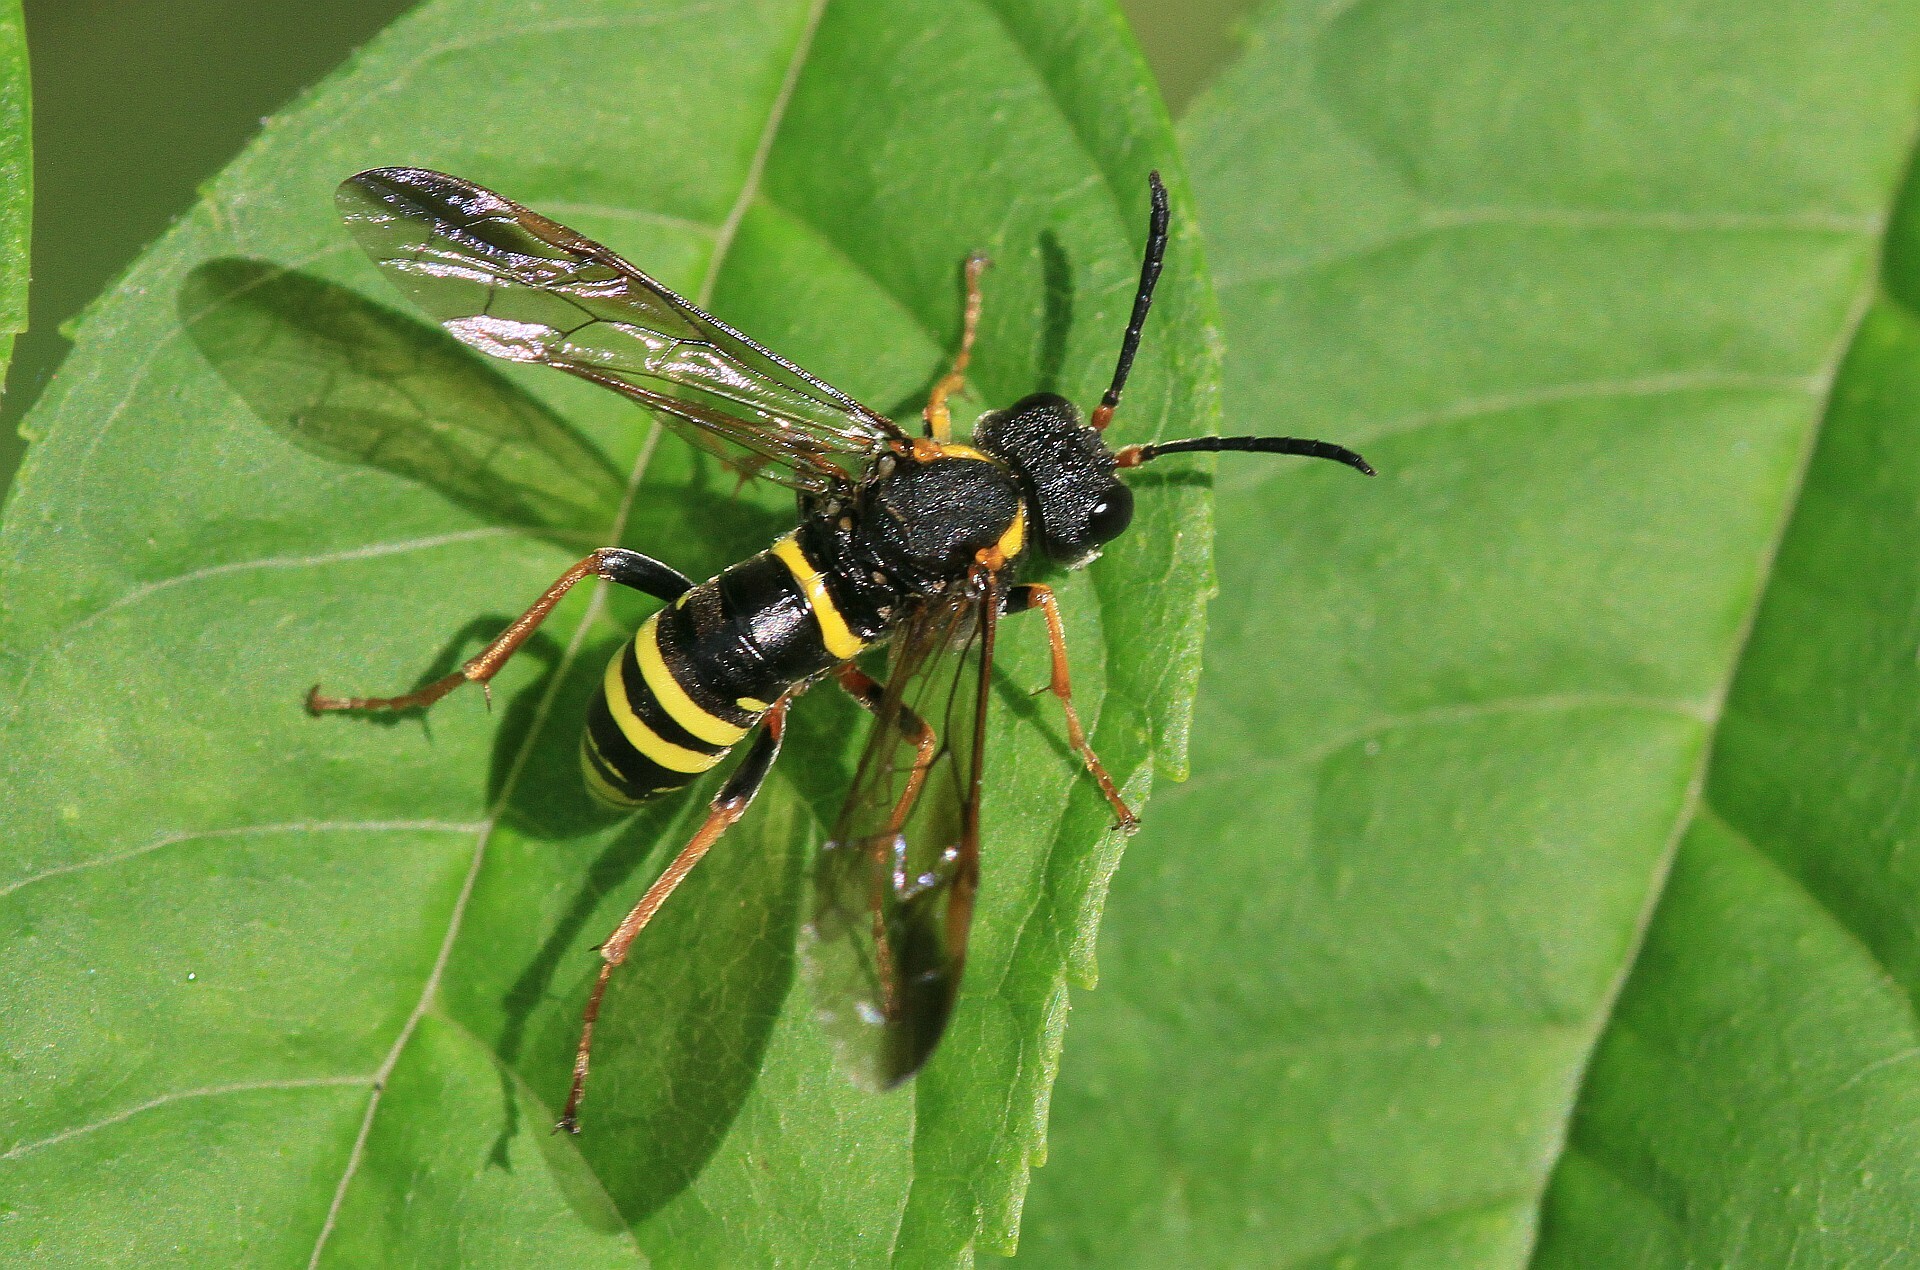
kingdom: Animalia
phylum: Arthropoda
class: Insecta
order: Hymenoptera
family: Tenthredinidae
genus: Tenthredo
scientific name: Tenthredo vespa
